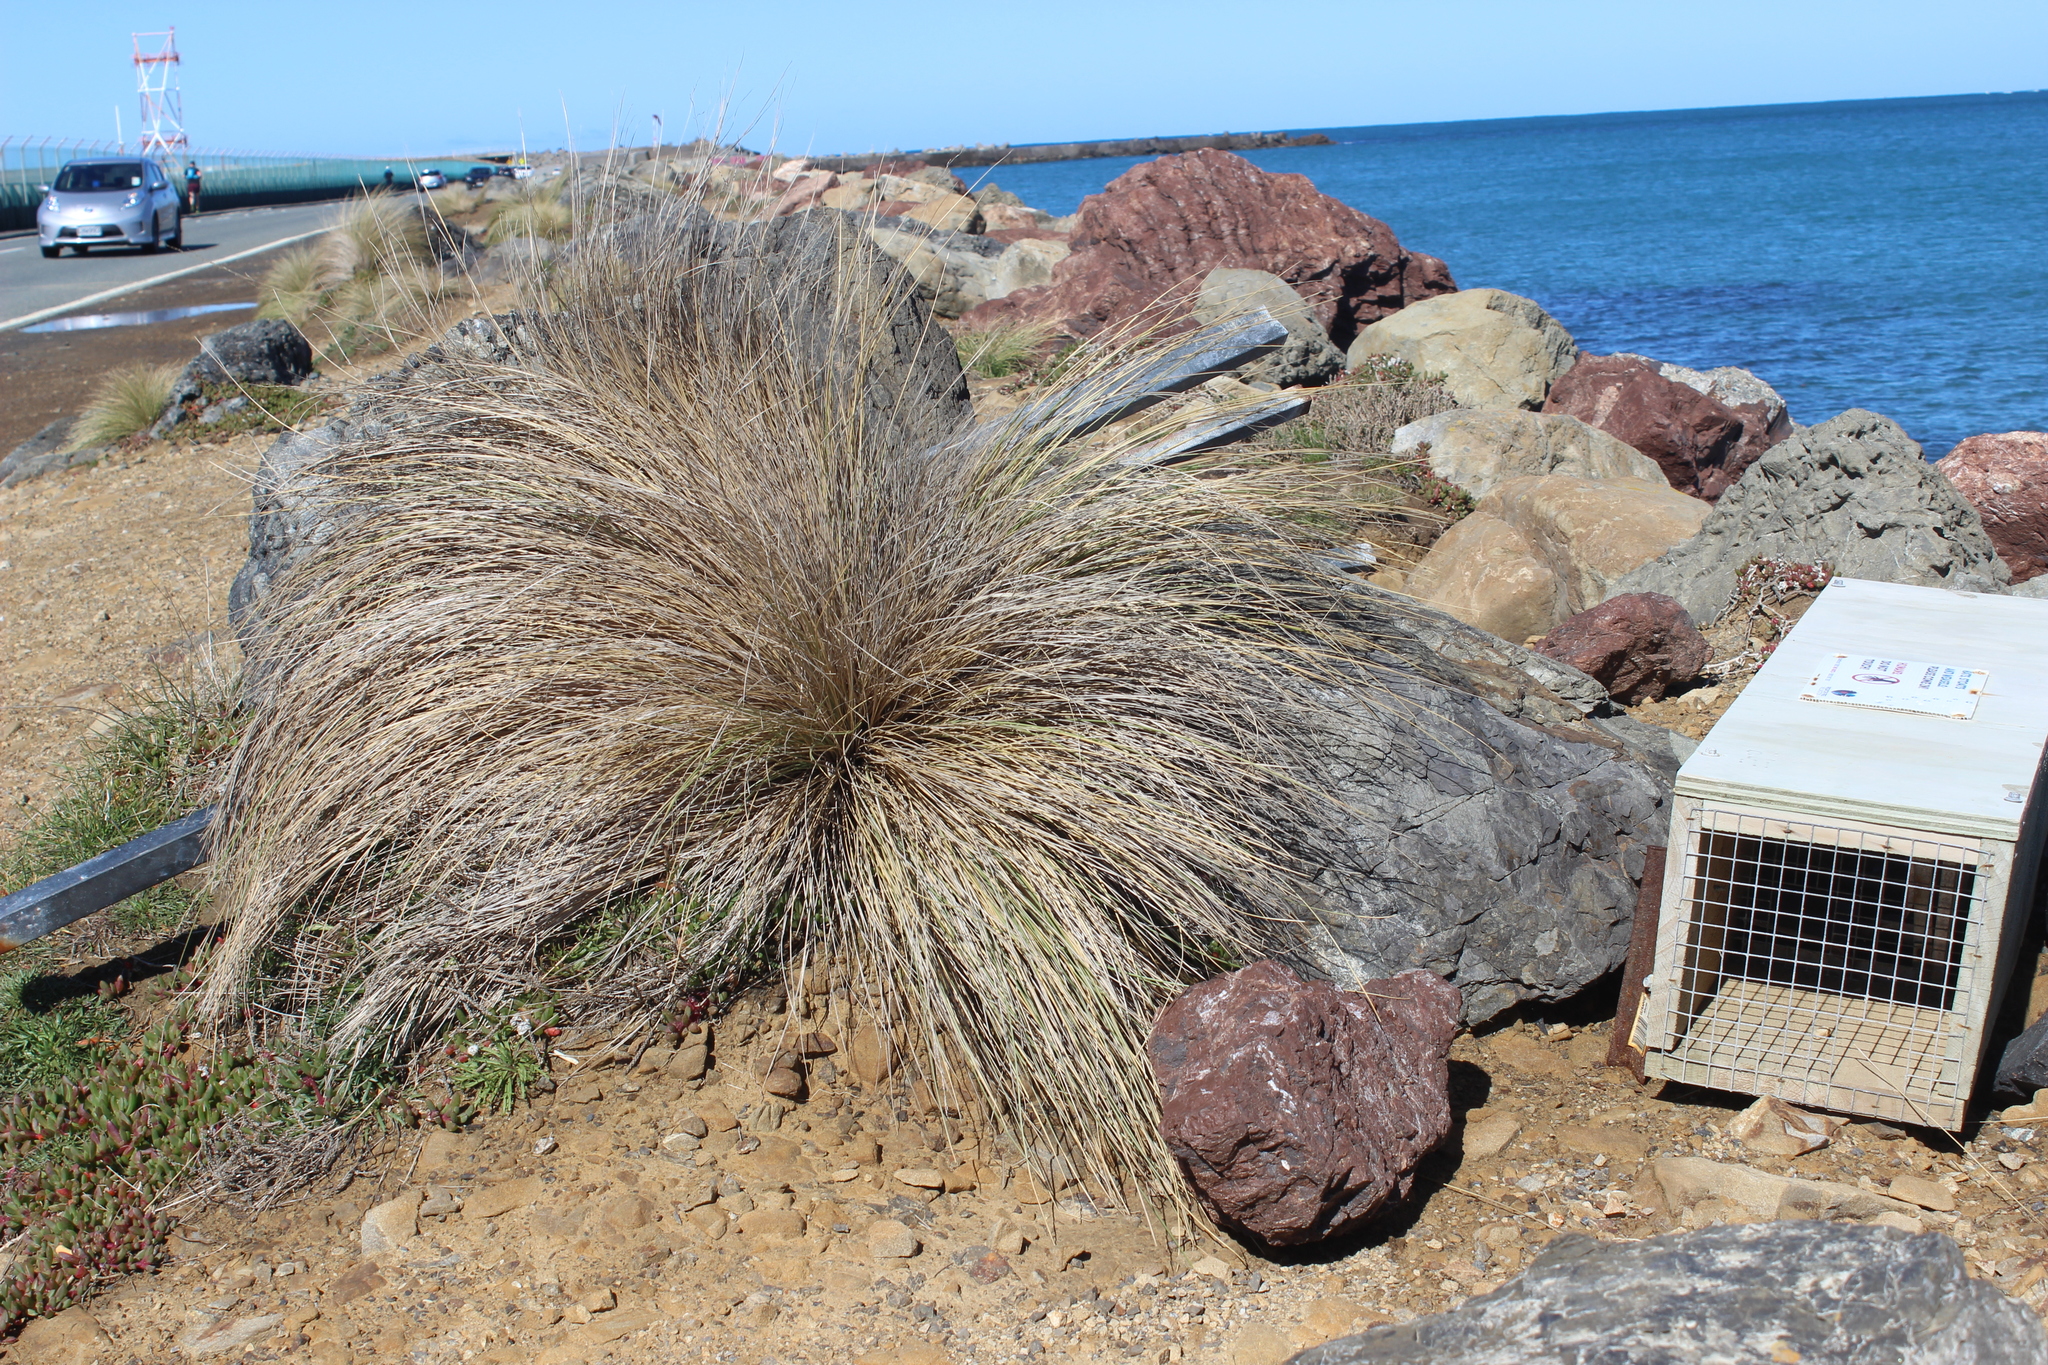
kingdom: Plantae
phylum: Tracheophyta
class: Liliopsida
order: Poales
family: Poaceae
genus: Poa
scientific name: Poa cita
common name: Silver tussock
